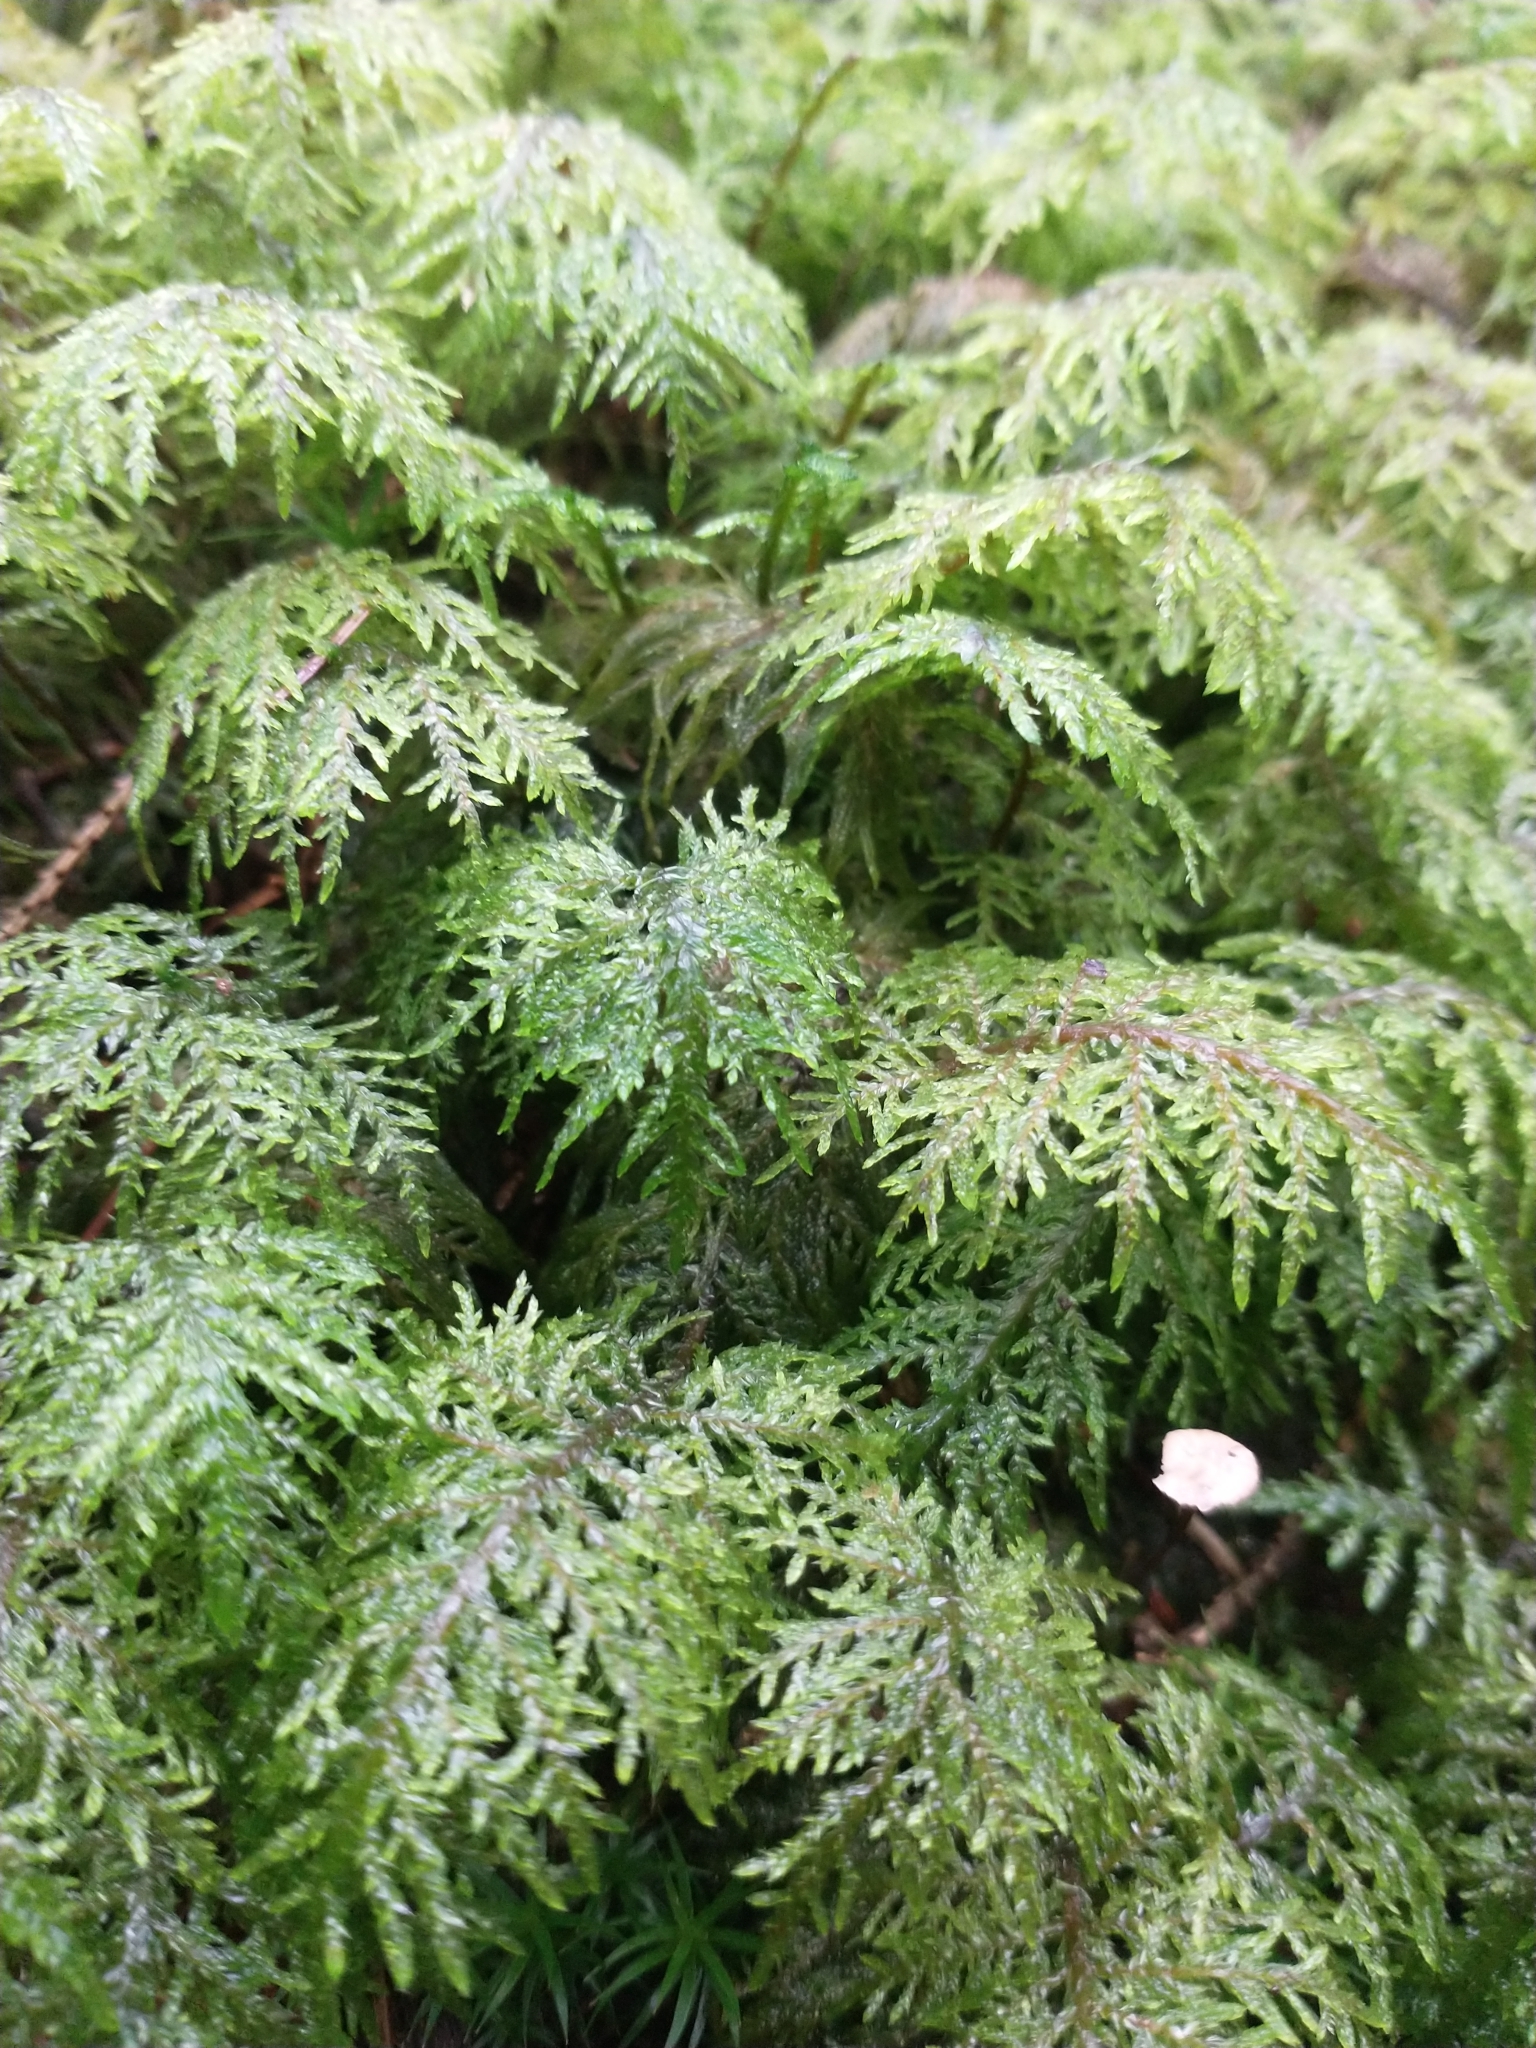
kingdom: Plantae
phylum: Bryophyta
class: Bryopsida
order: Hypnales
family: Hylocomiaceae
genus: Hylocomium
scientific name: Hylocomium splendens
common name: Stairstep moss
